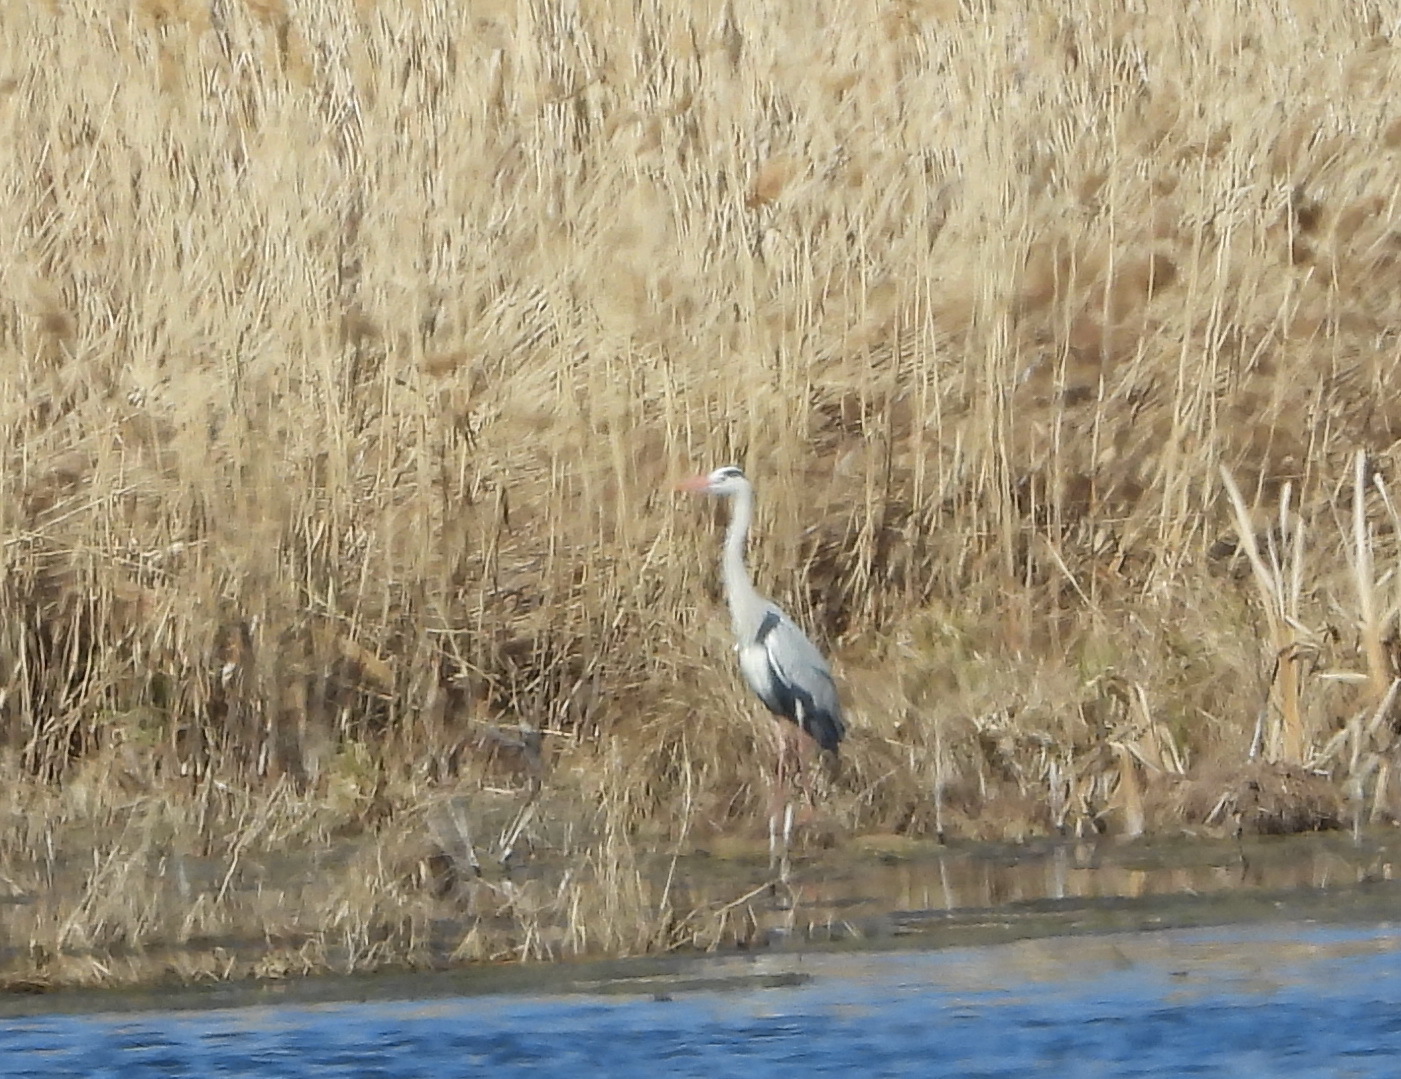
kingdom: Animalia
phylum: Chordata
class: Aves
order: Pelecaniformes
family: Ardeidae
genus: Ardea
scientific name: Ardea cinerea
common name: Grey heron
